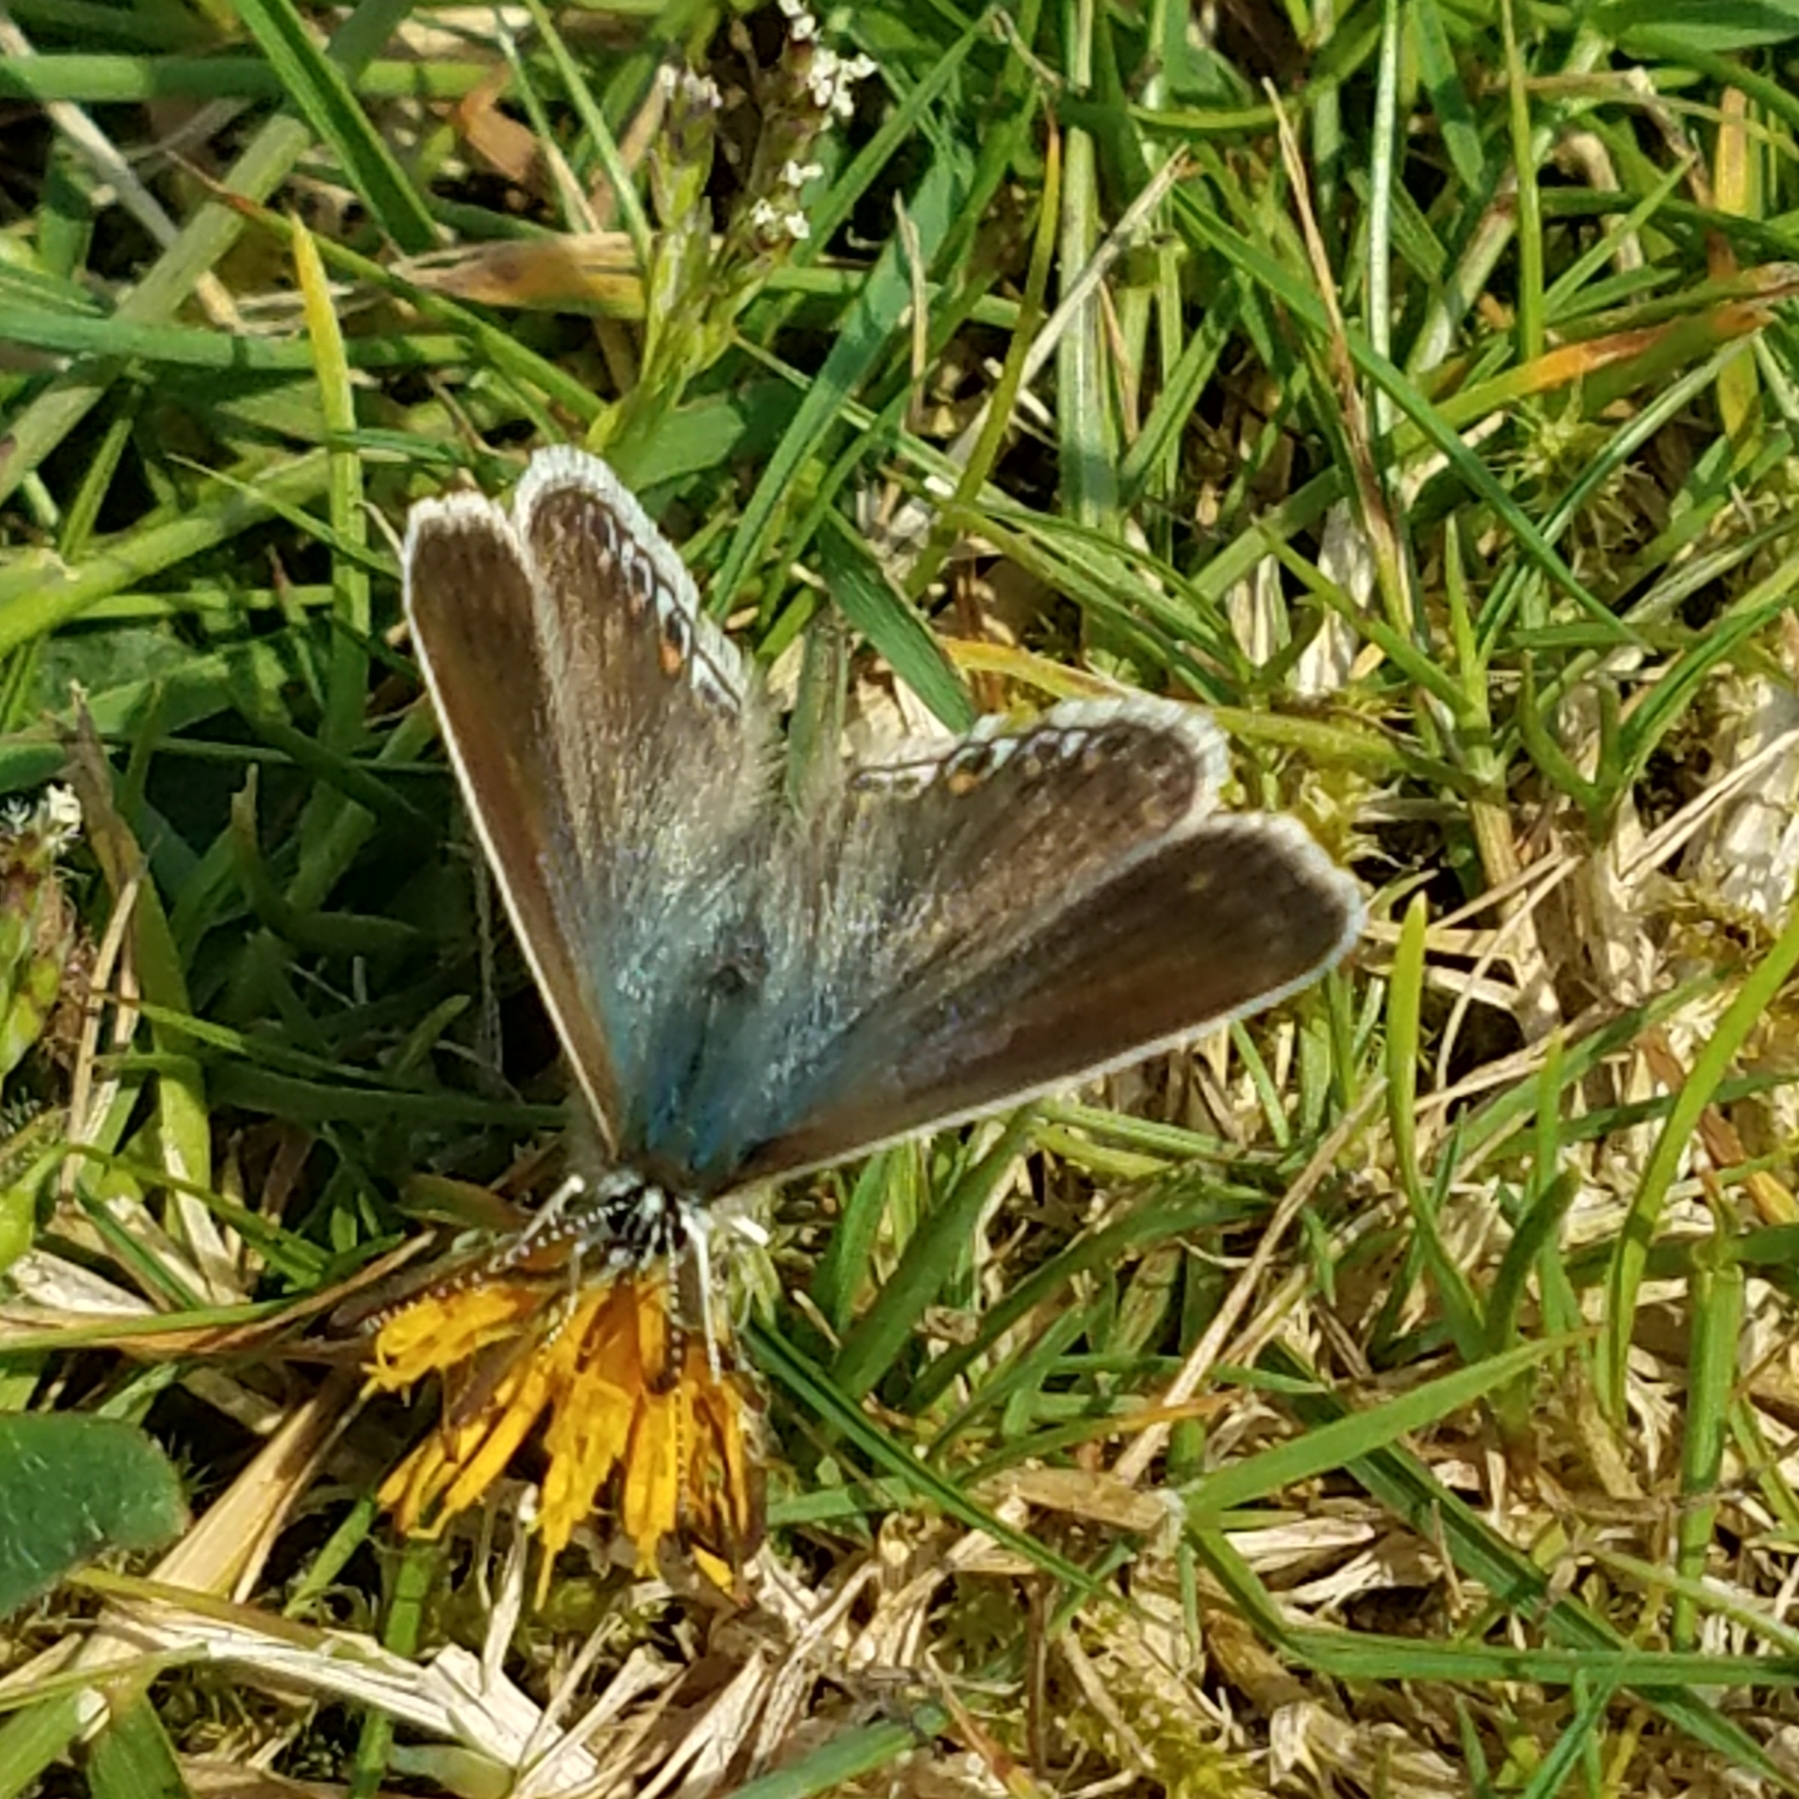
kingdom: Animalia
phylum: Arthropoda
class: Insecta
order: Lepidoptera
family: Lycaenidae
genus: Polyommatus
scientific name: Polyommatus icarus
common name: Common blue
